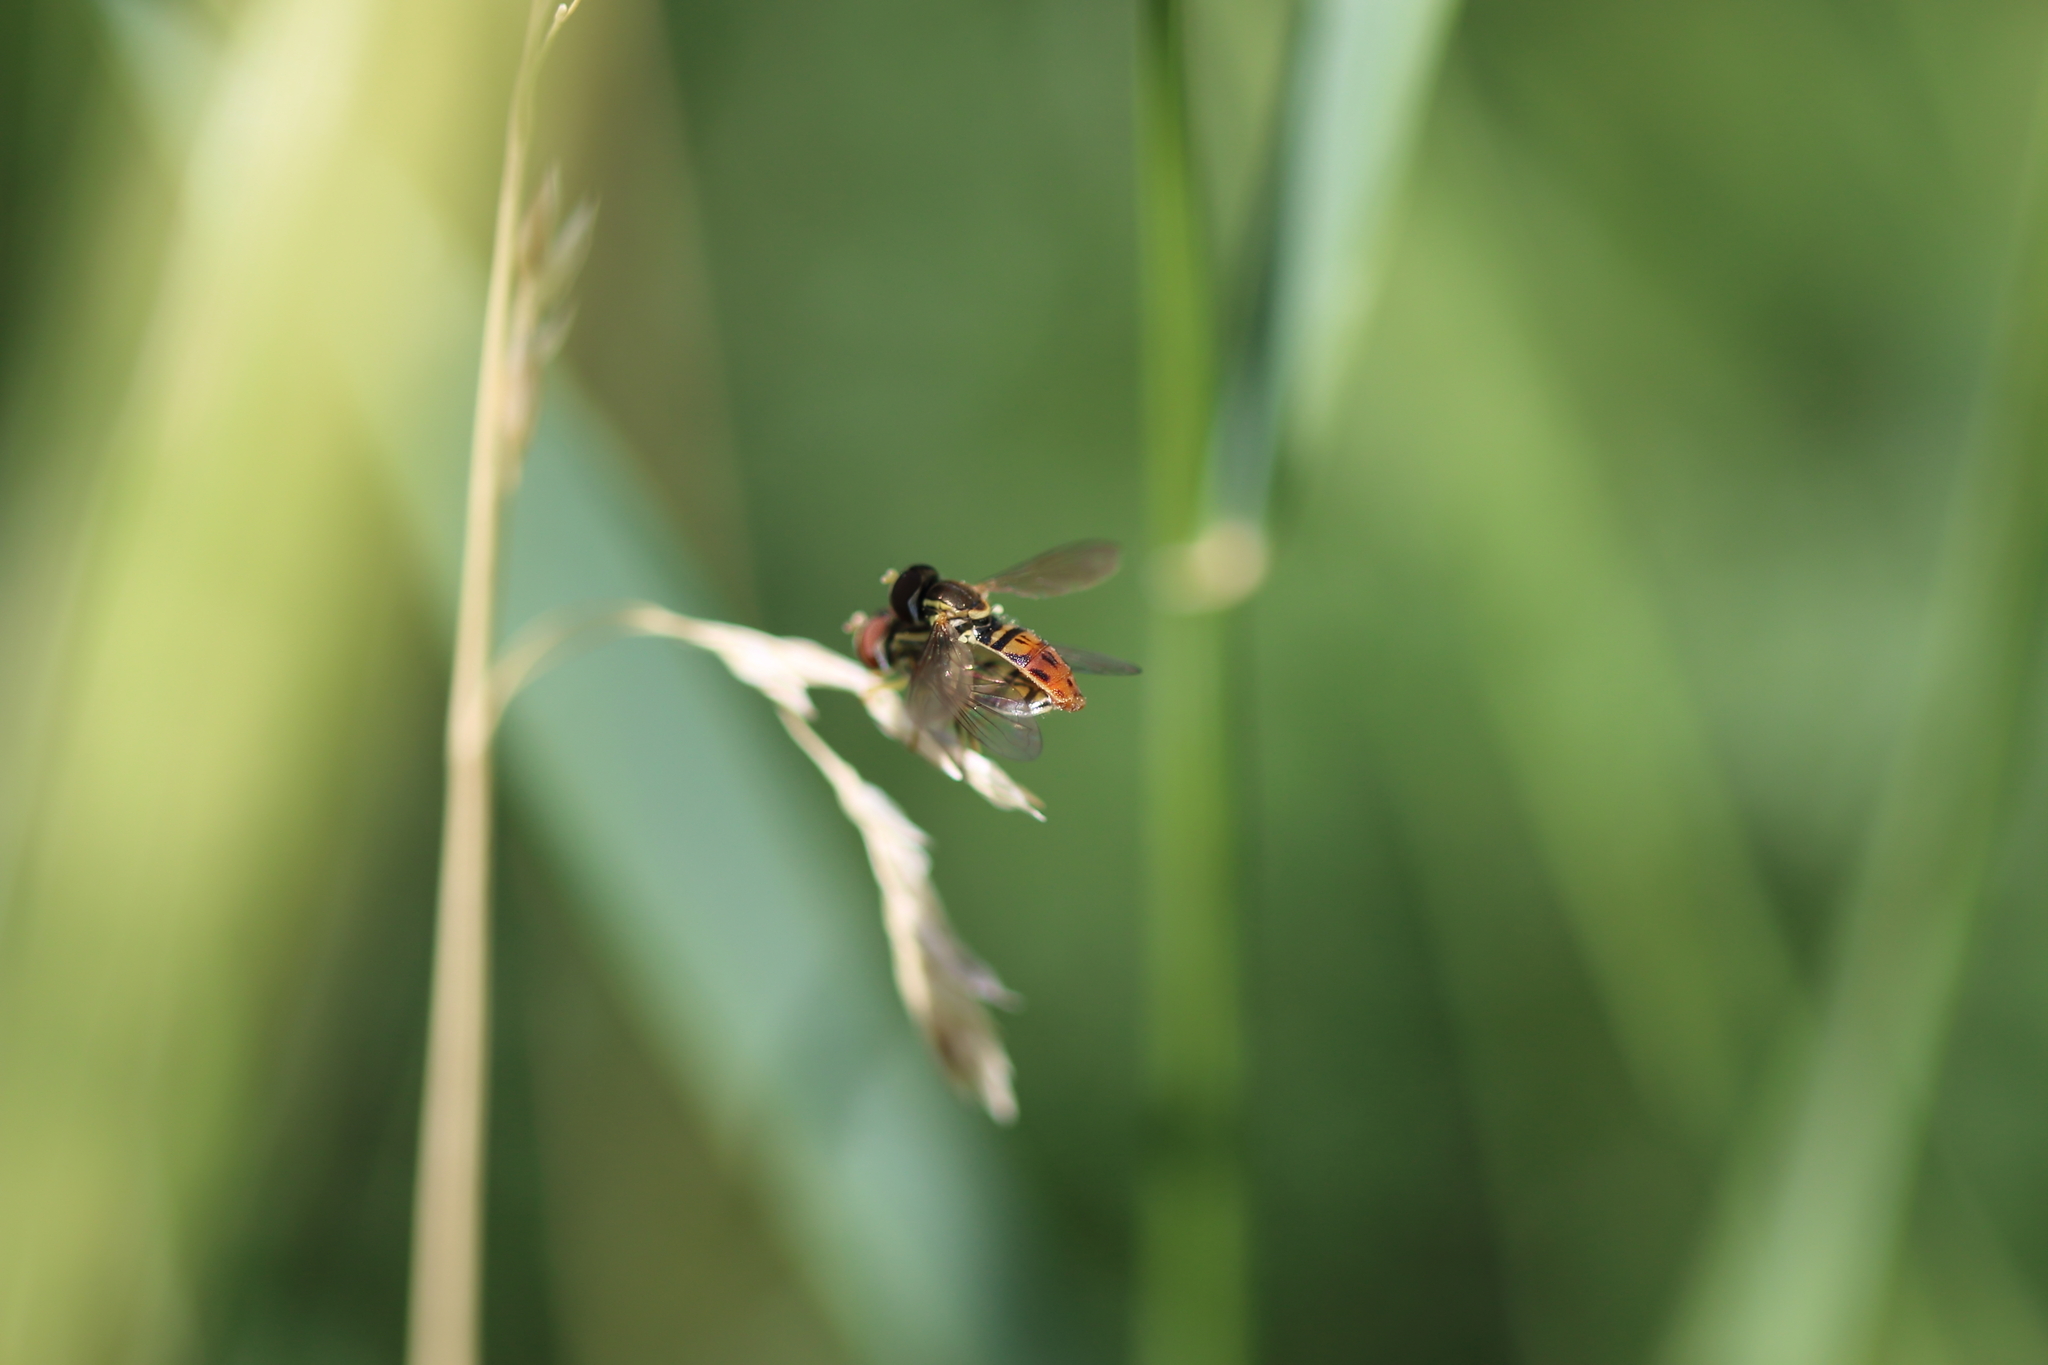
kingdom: Animalia
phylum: Arthropoda
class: Insecta
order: Diptera
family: Syrphidae
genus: Toxomerus
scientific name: Toxomerus marginatus
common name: Syrphid fly
